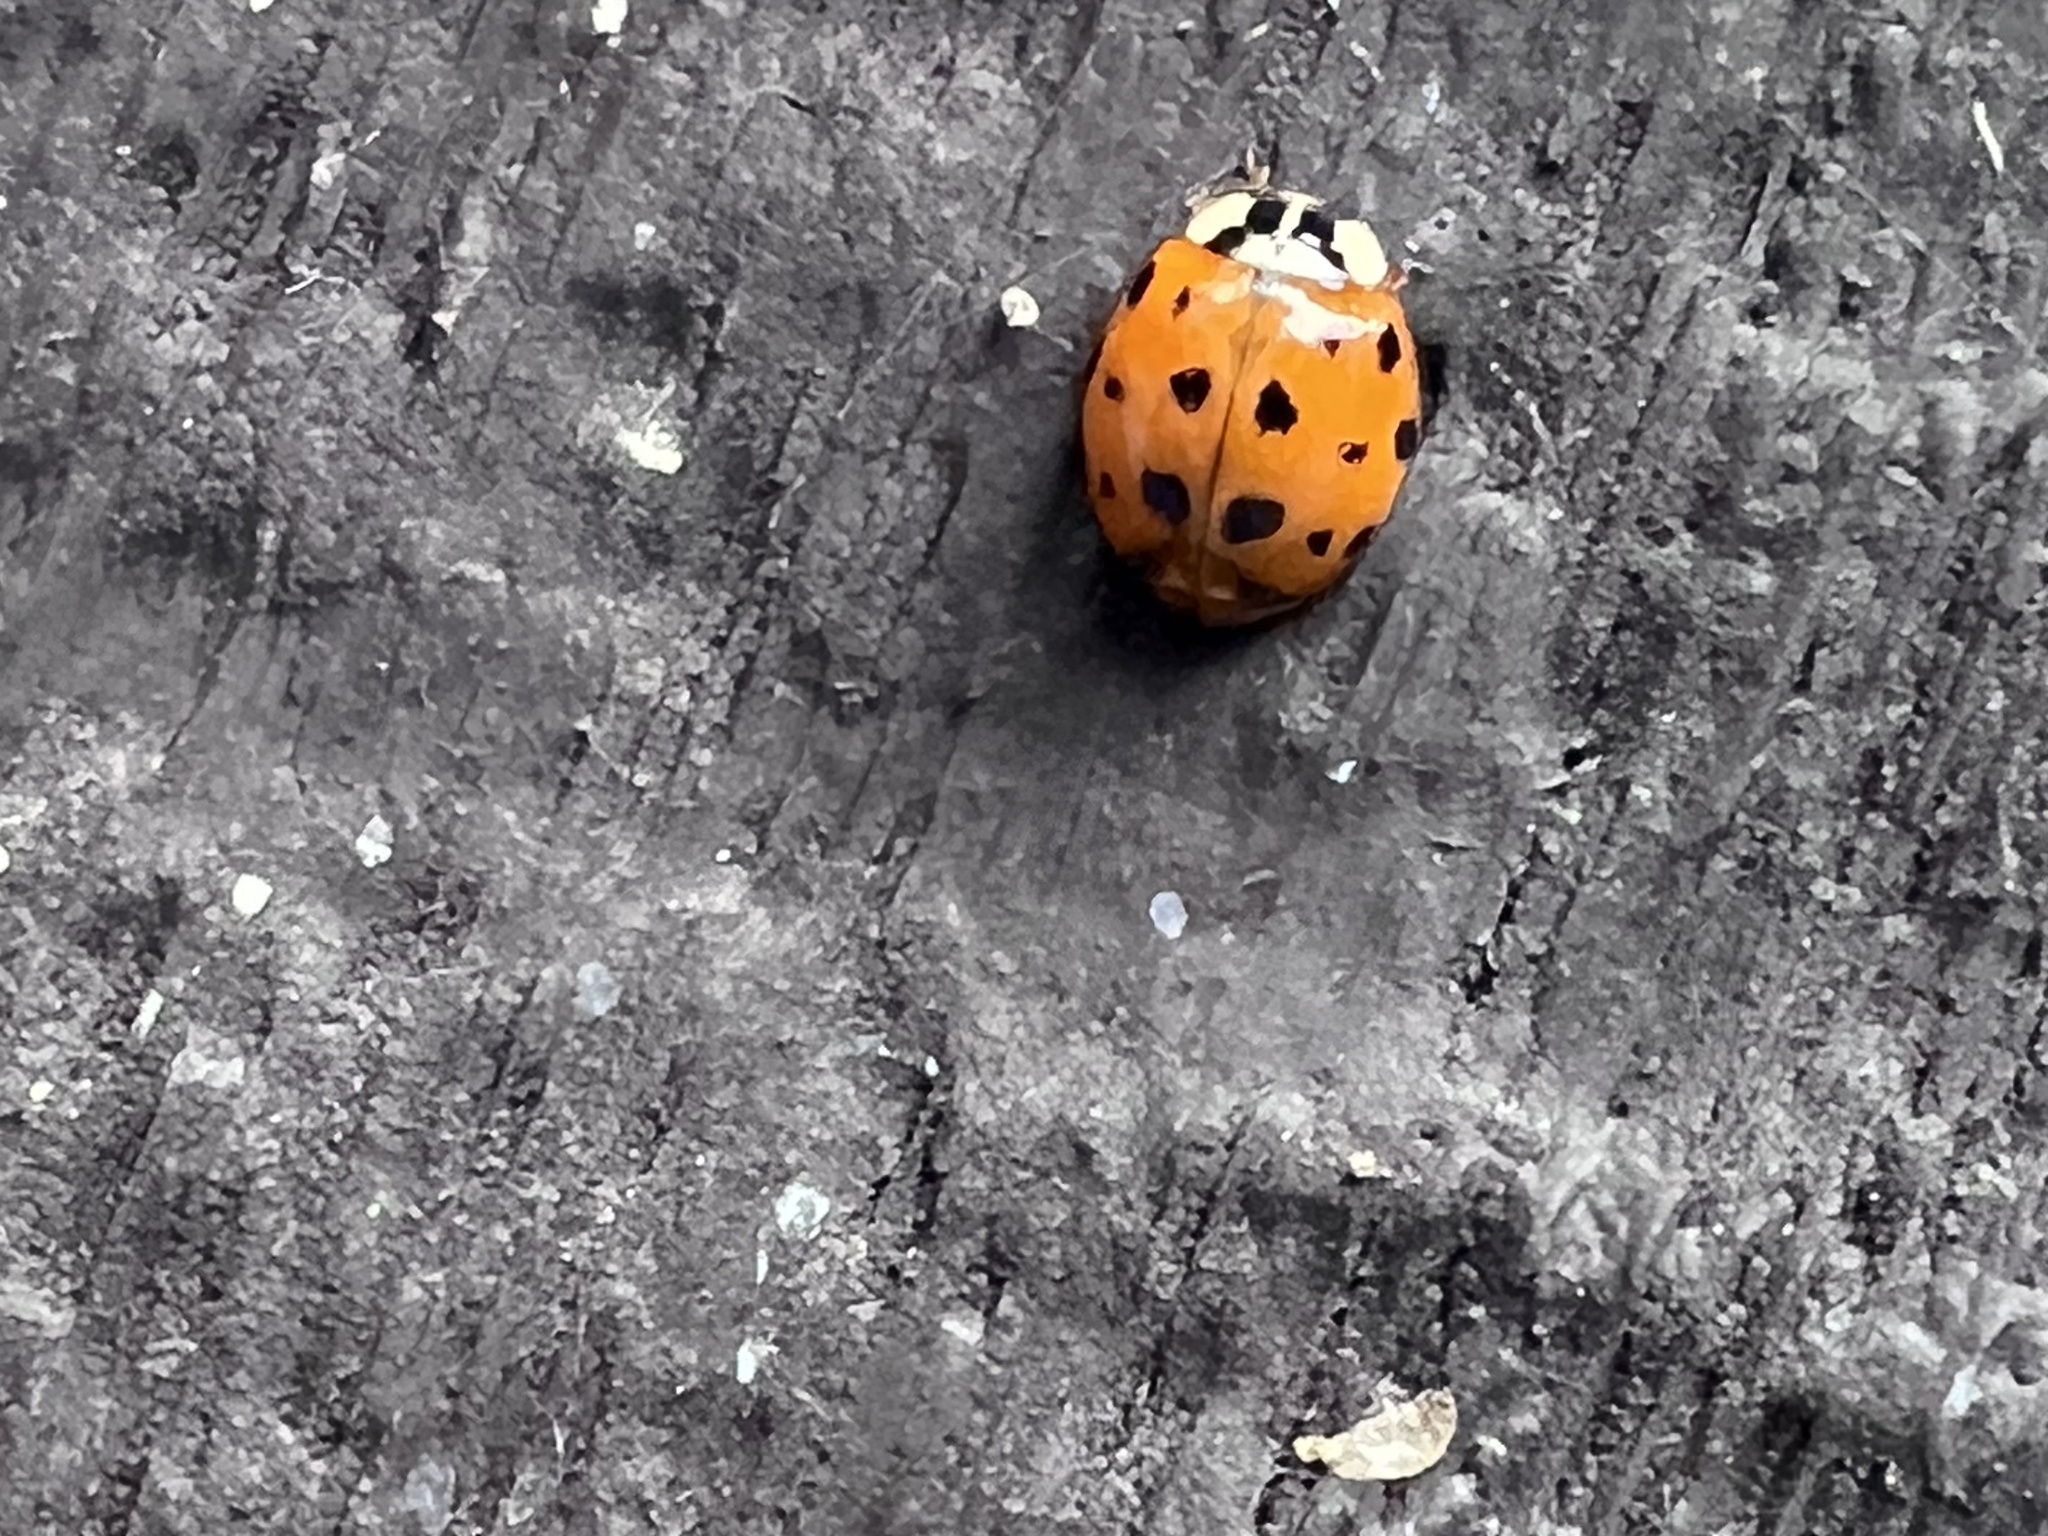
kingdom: Animalia
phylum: Arthropoda
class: Insecta
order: Coleoptera
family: Coccinellidae
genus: Harmonia
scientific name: Harmonia axyridis
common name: Harlequin ladybird
